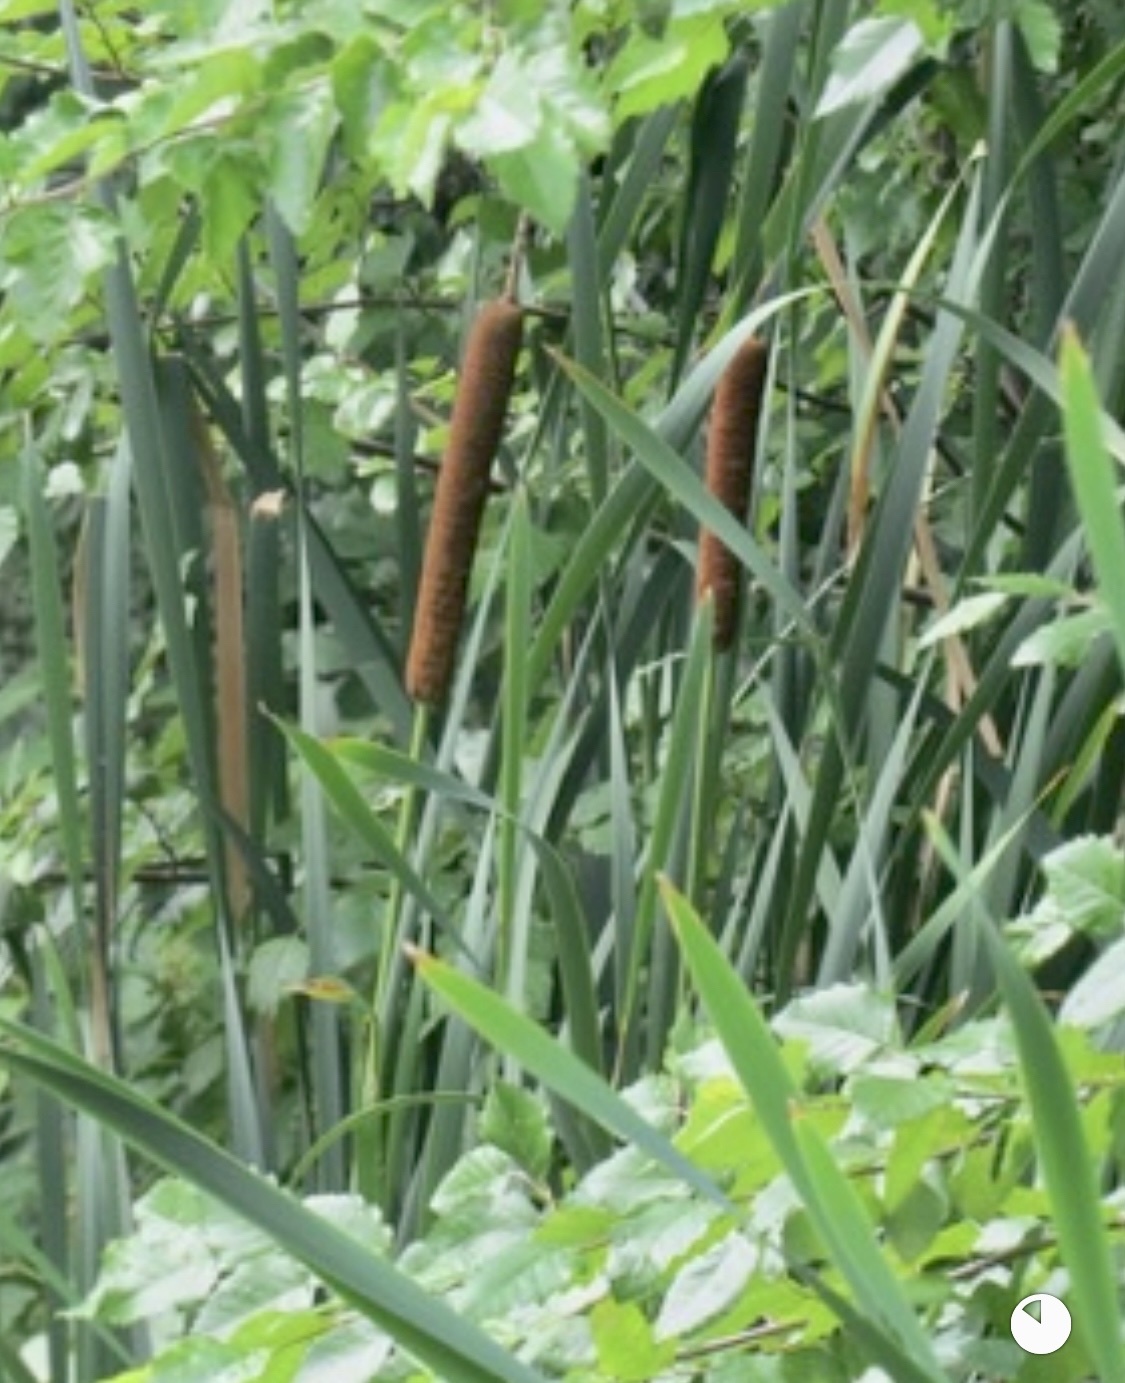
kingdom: Plantae
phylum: Tracheophyta
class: Liliopsida
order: Poales
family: Typhaceae
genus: Typha
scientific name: Typha latifolia
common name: Broadleaf cattail
